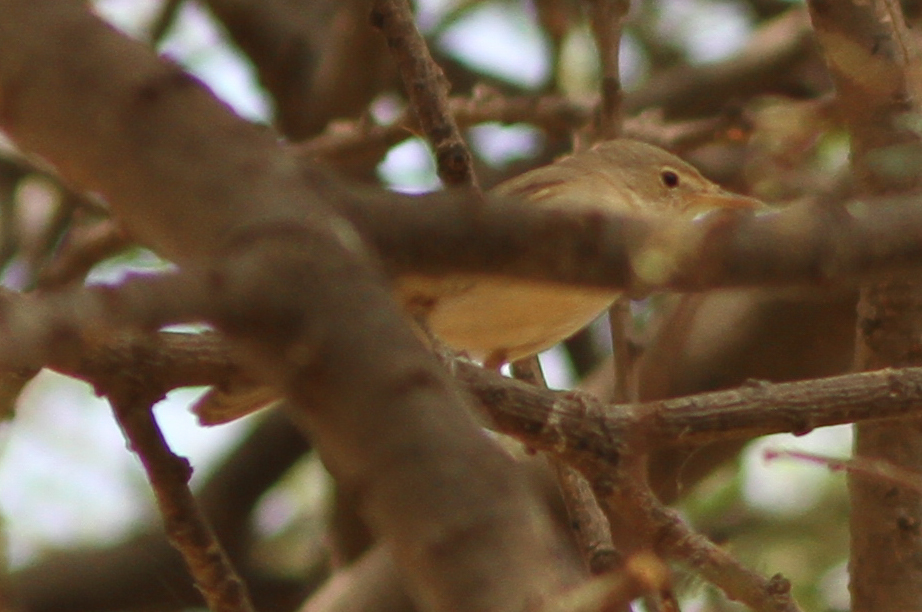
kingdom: Animalia
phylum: Chordata
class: Aves
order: Passeriformes
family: Acrocephalidae
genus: Iduna
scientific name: Iduna opaca
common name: Western olivaceous warbler
